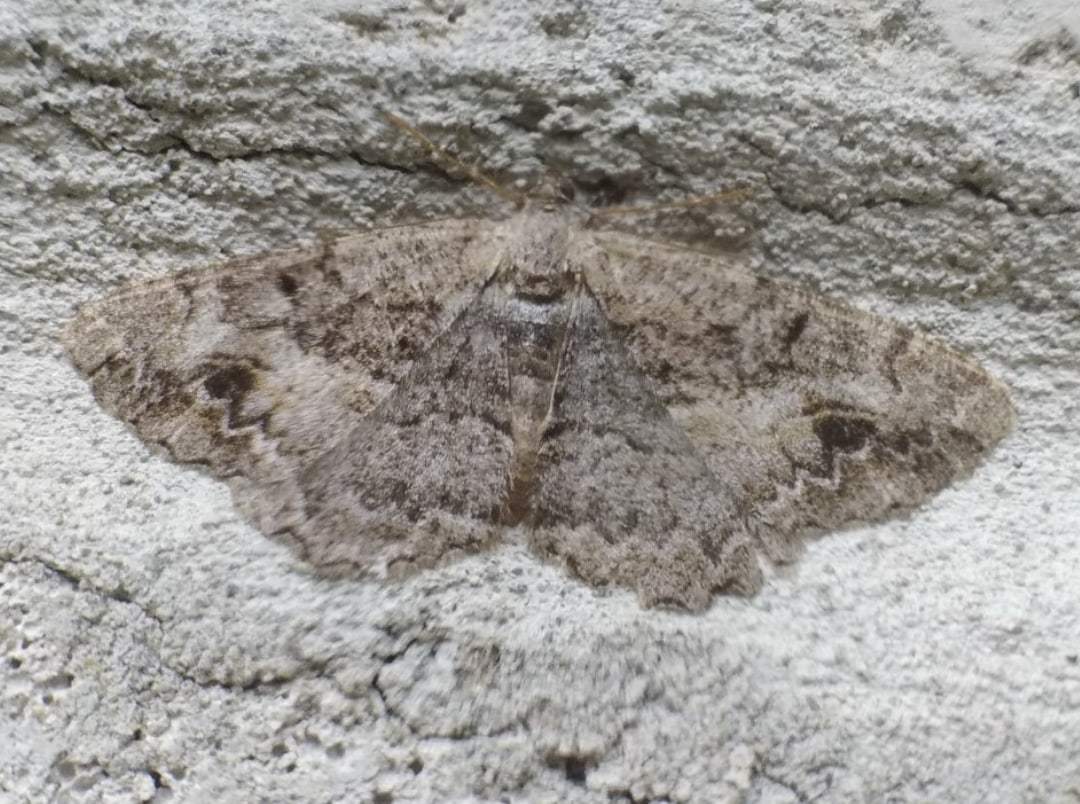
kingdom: Animalia
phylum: Arthropoda
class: Insecta
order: Lepidoptera
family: Geometridae
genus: Alcis
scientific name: Alcis deversata
